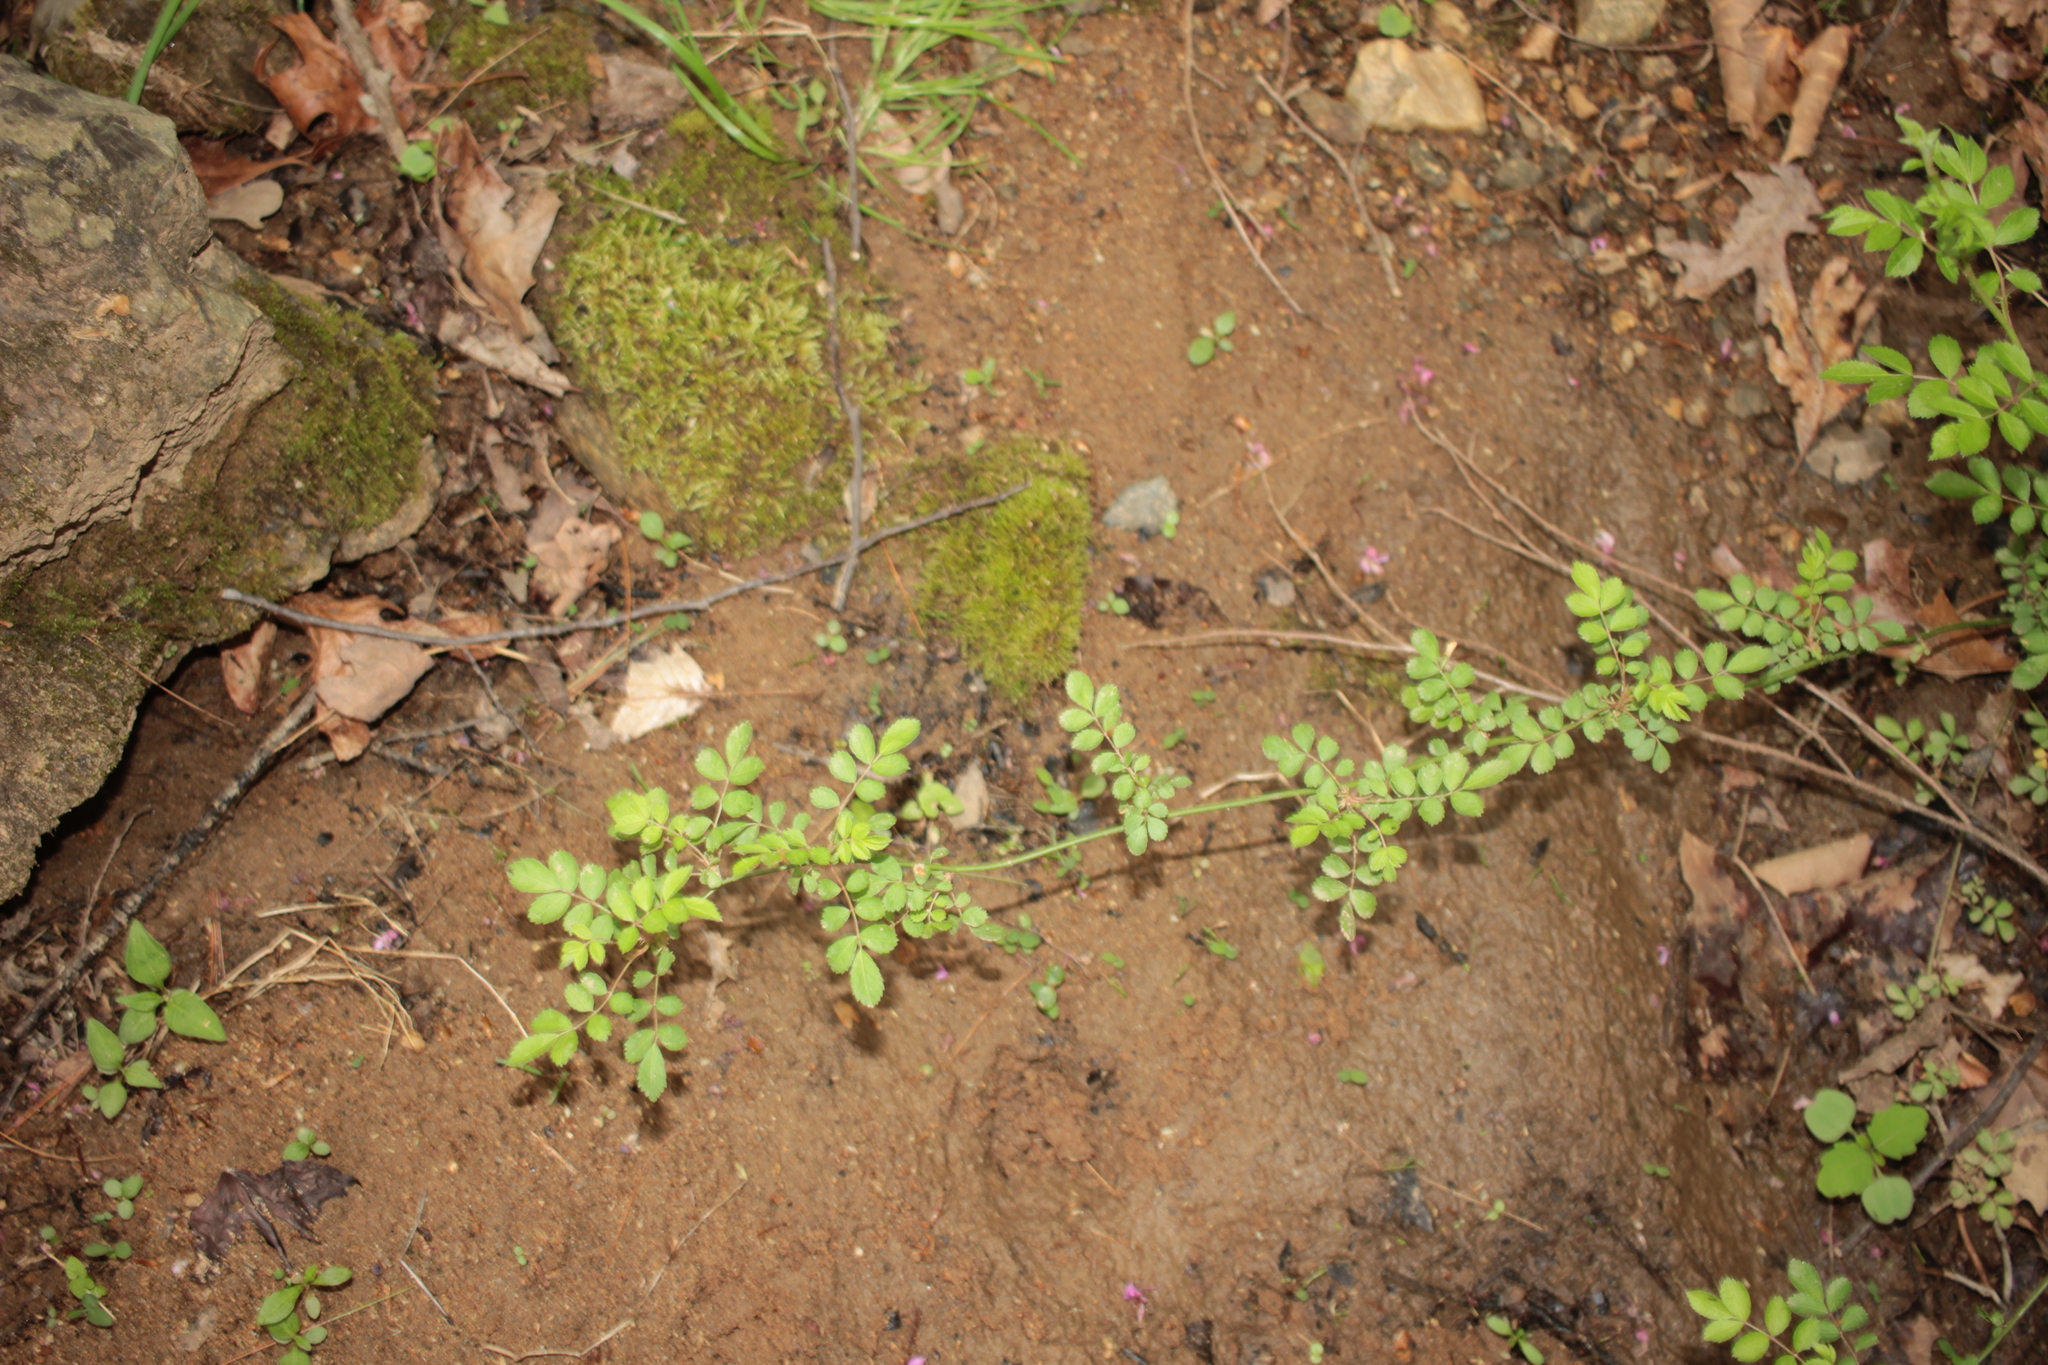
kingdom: Plantae
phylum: Tracheophyta
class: Magnoliopsida
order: Rosales
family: Rosaceae
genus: Rosa
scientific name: Rosa multiflora
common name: Multiflora rose
